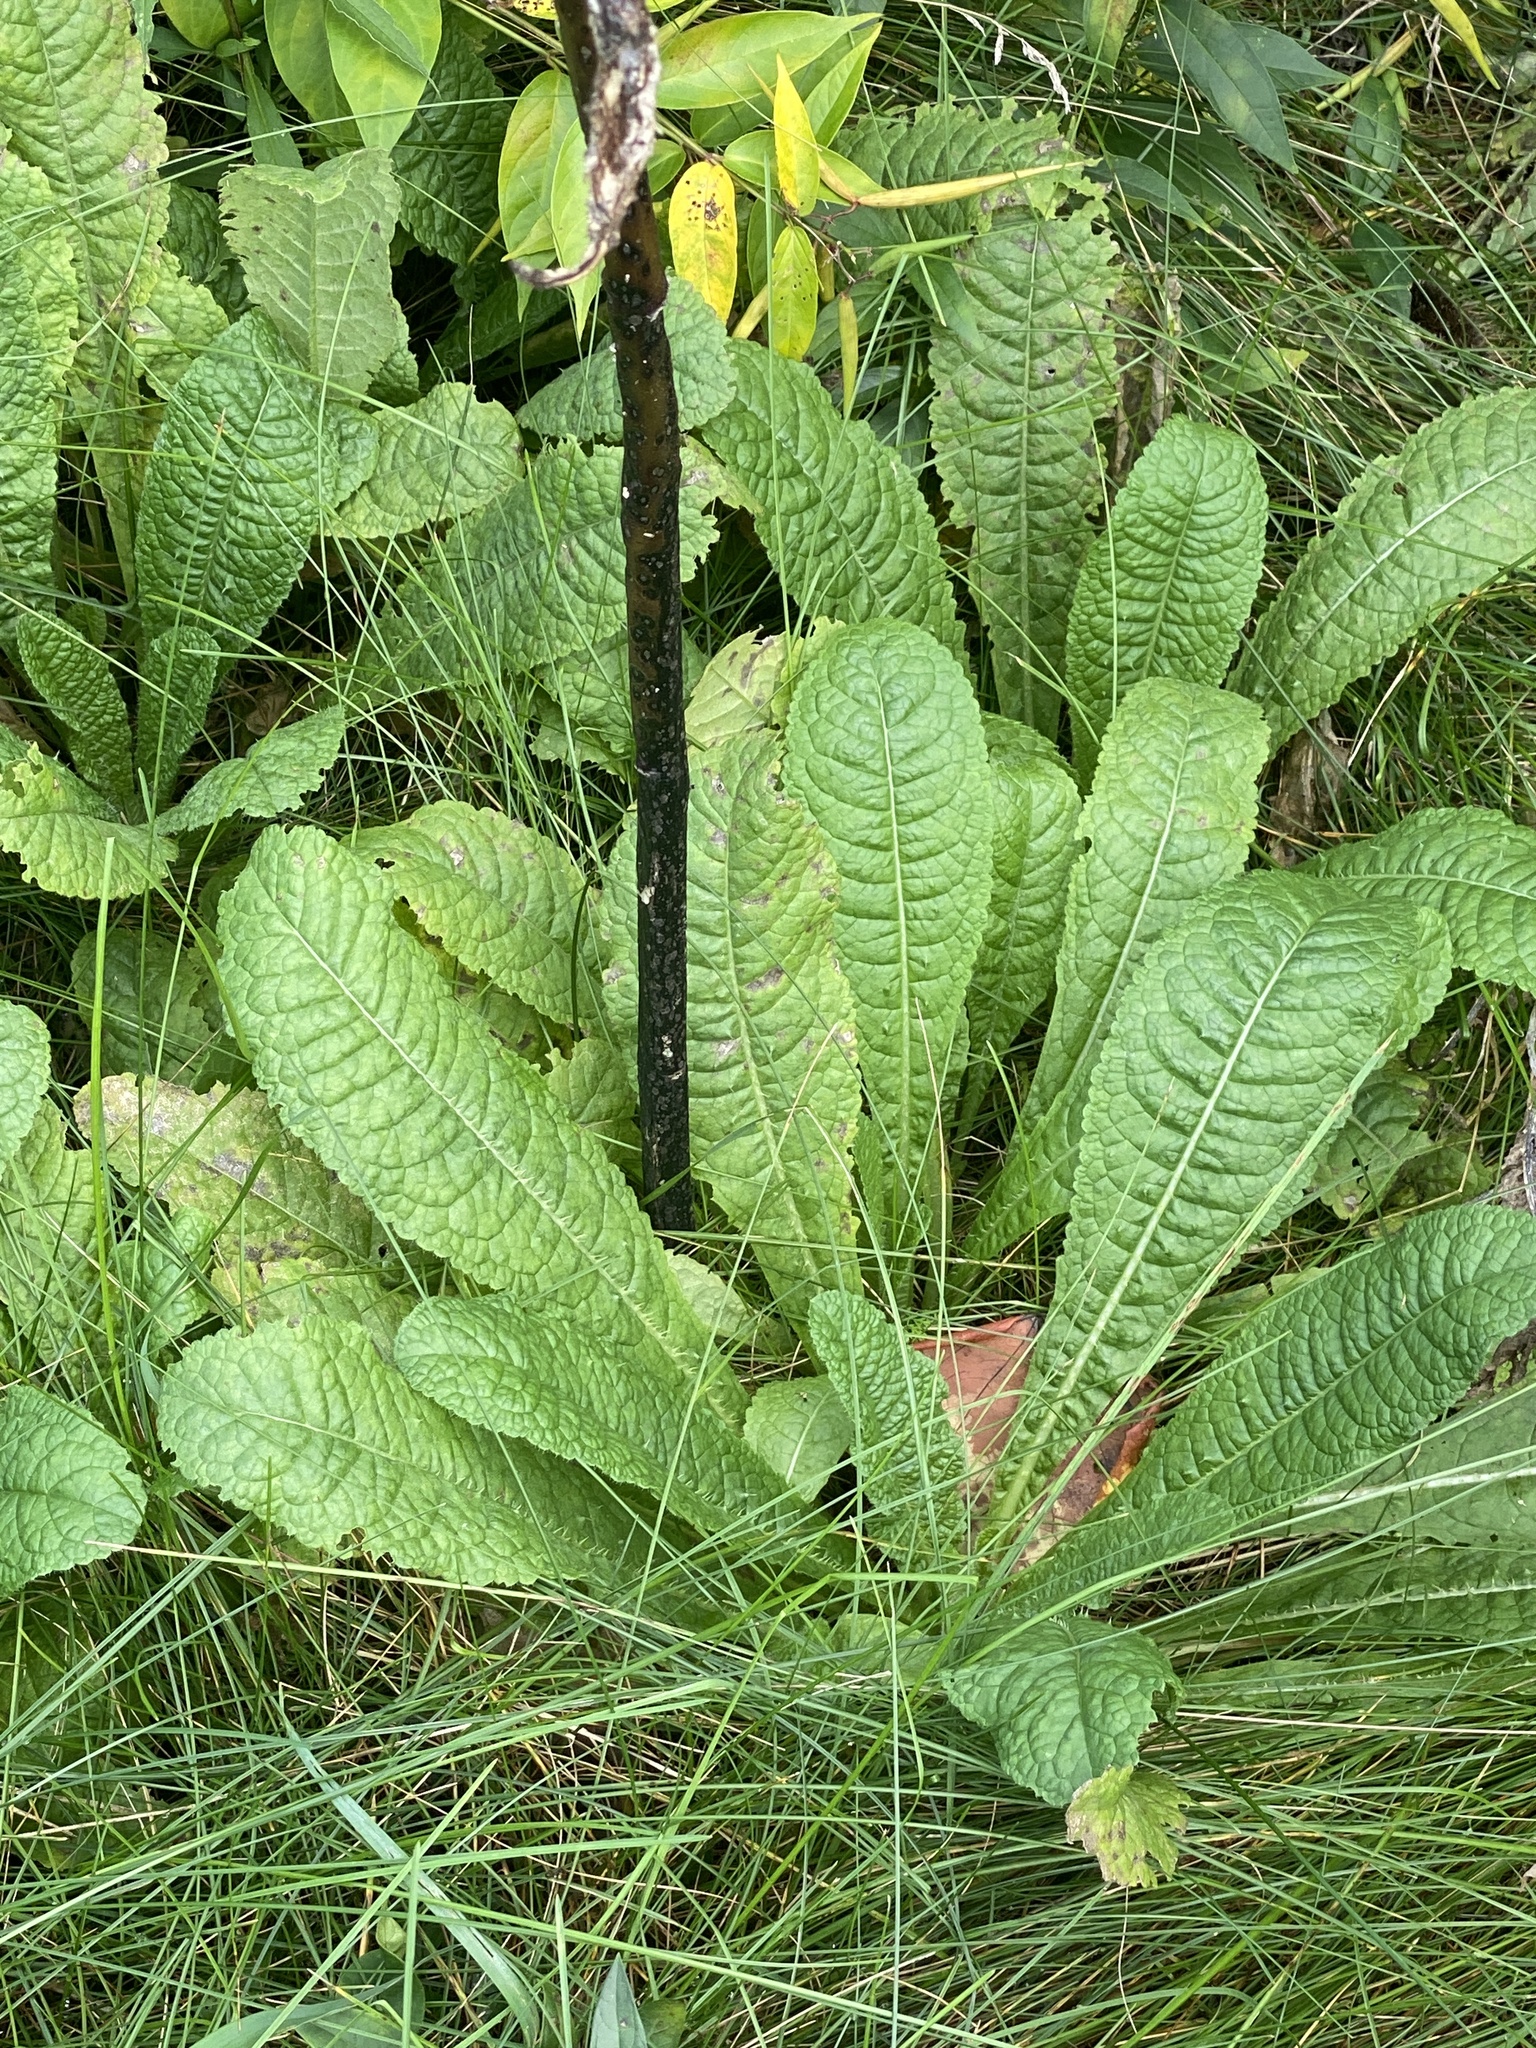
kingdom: Plantae
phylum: Tracheophyta
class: Magnoliopsida
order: Dipsacales
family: Caprifoliaceae
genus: Dipsacus
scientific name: Dipsacus fullonum
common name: Teasel
